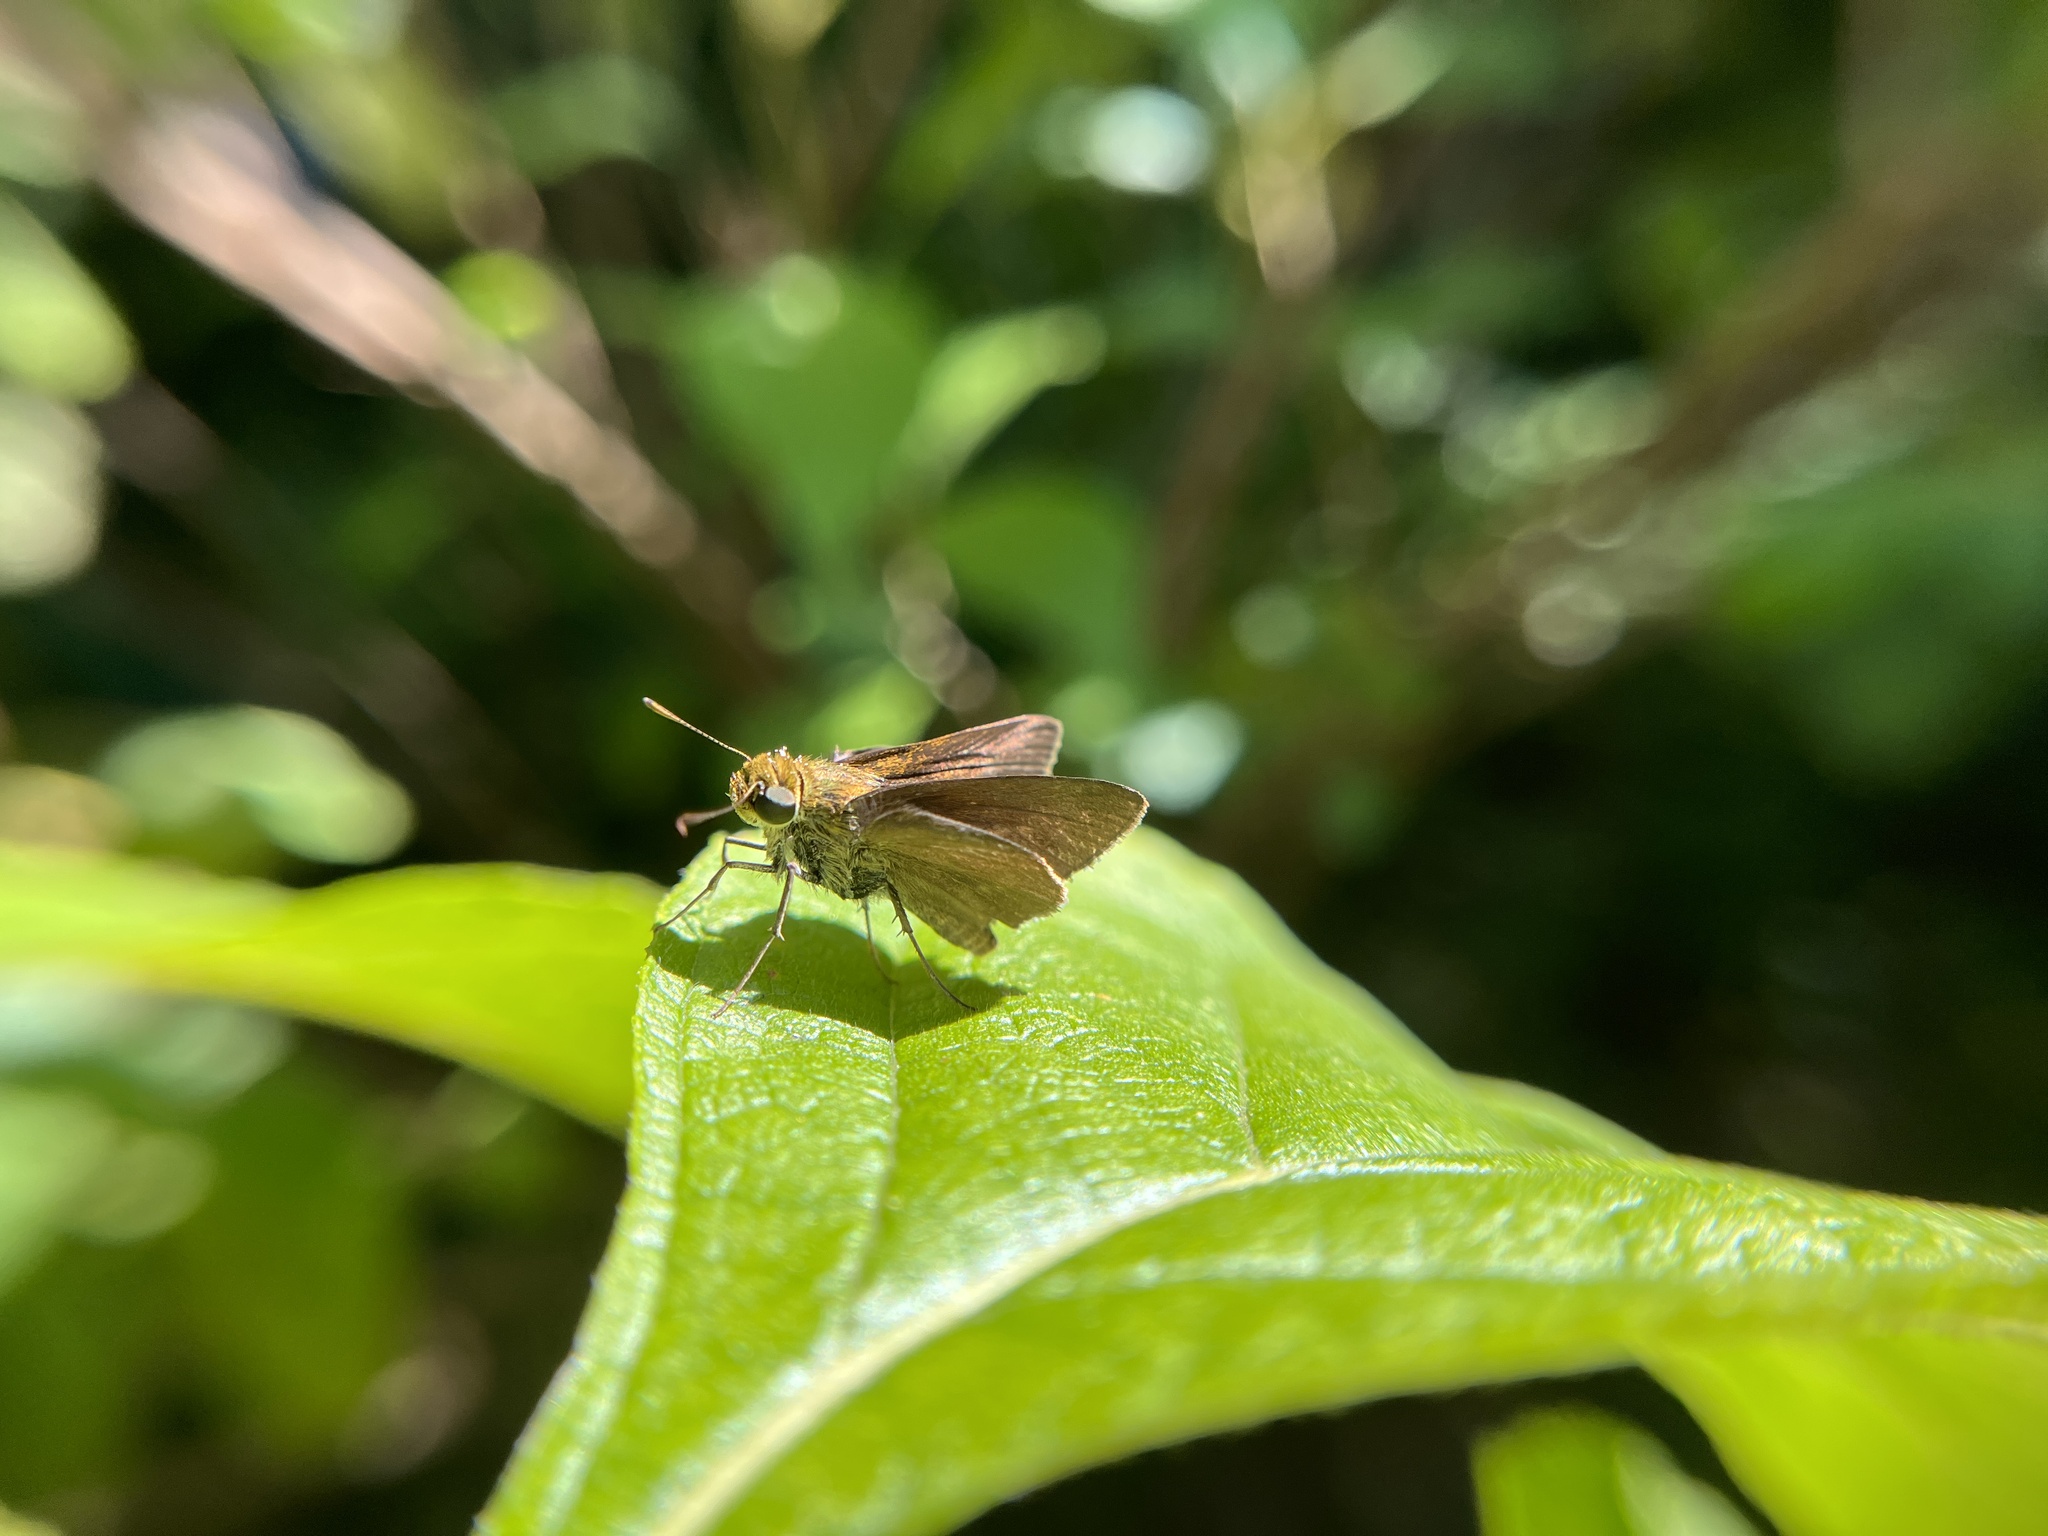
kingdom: Animalia
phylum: Arthropoda
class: Insecta
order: Lepidoptera
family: Hesperiidae
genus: Euphyes
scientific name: Euphyes vestris
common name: Dun skipper
